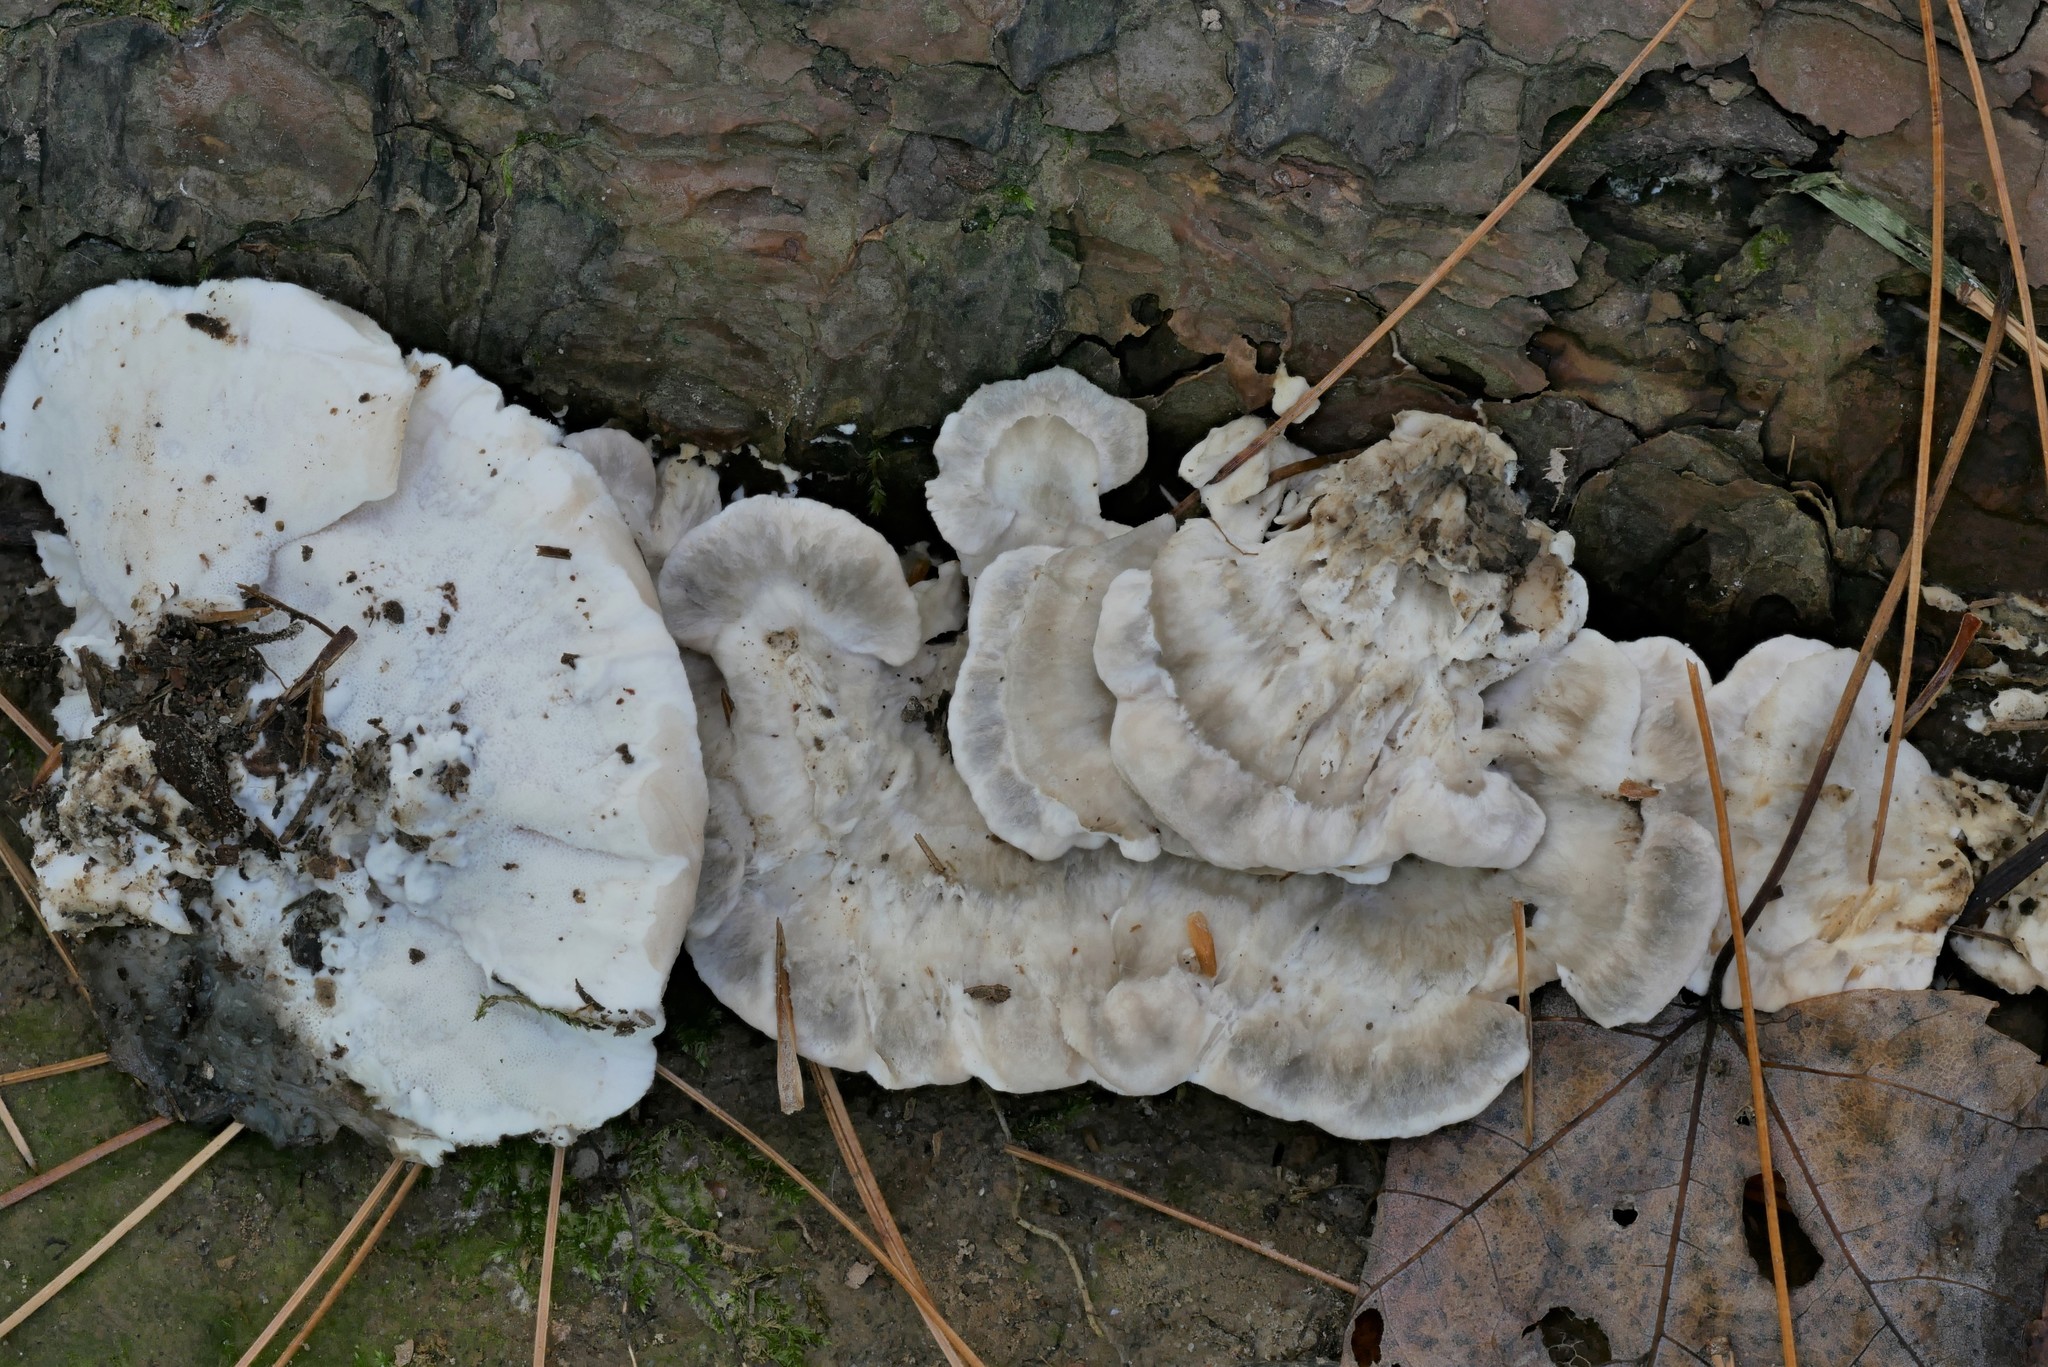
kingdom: Fungi
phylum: Basidiomycota
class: Agaricomycetes
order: Polyporales
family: Dacryobolaceae
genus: Spongiporus
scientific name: Spongiporus floriformis
